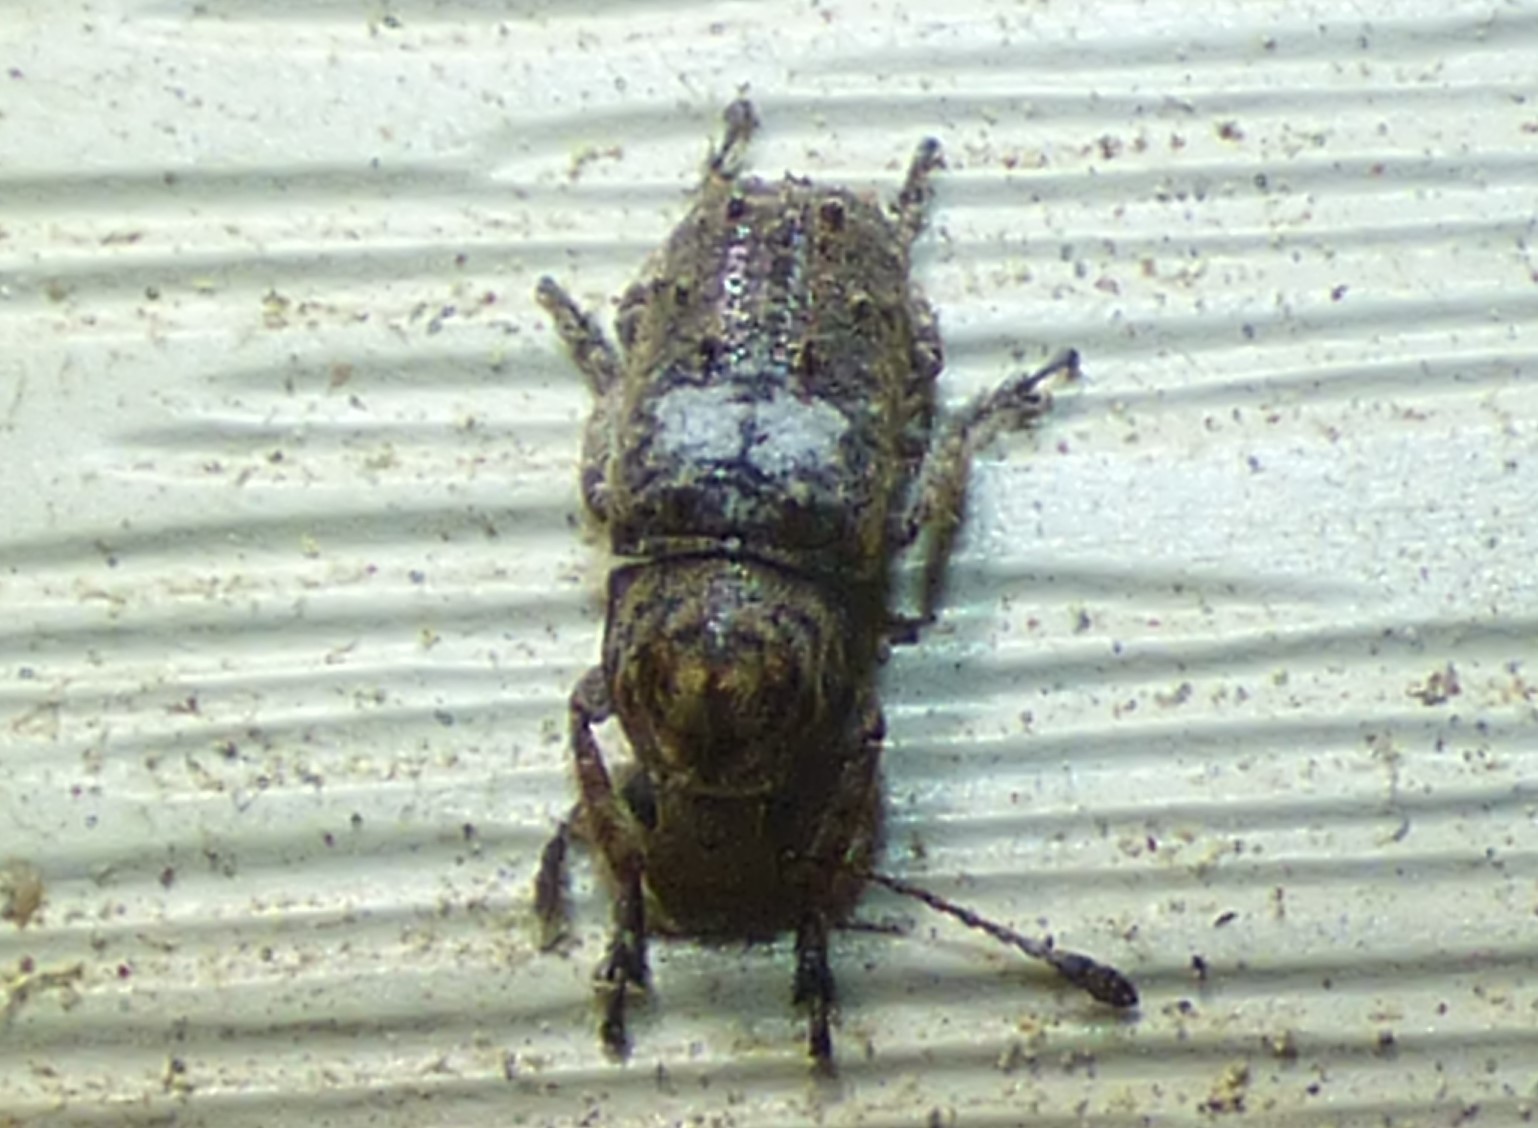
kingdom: Animalia
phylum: Arthropoda
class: Insecta
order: Coleoptera
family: Anthribidae
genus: Toxonotus
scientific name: Toxonotus cornutus
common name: Fungus weevil
